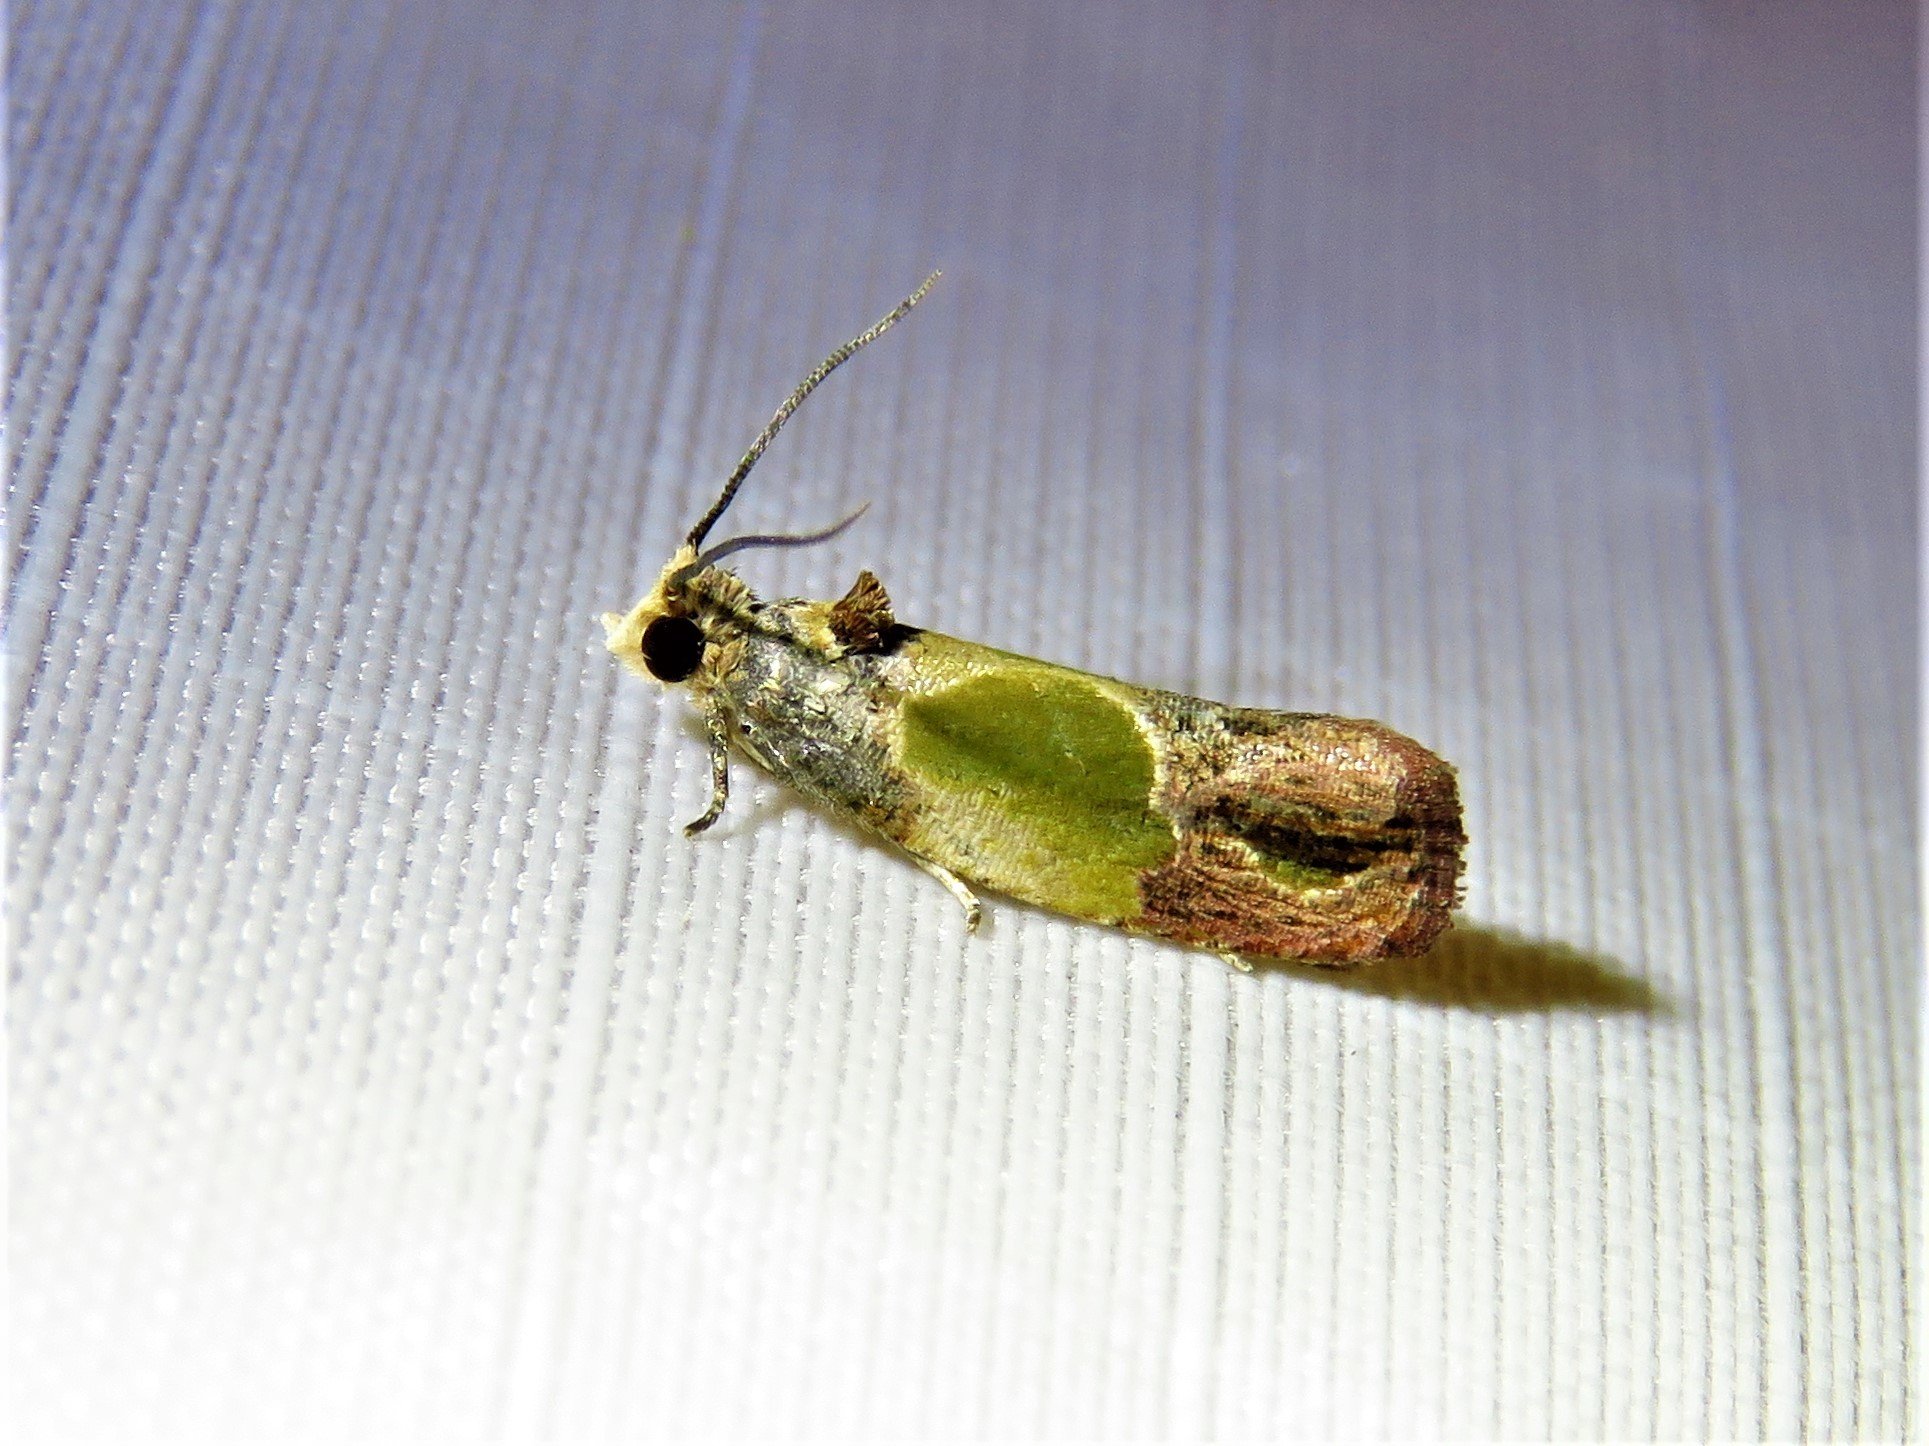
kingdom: Animalia
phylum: Arthropoda
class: Insecta
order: Lepidoptera
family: Tortricidae
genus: Eumarozia
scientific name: Eumarozia malachitana
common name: Sculptured moth
